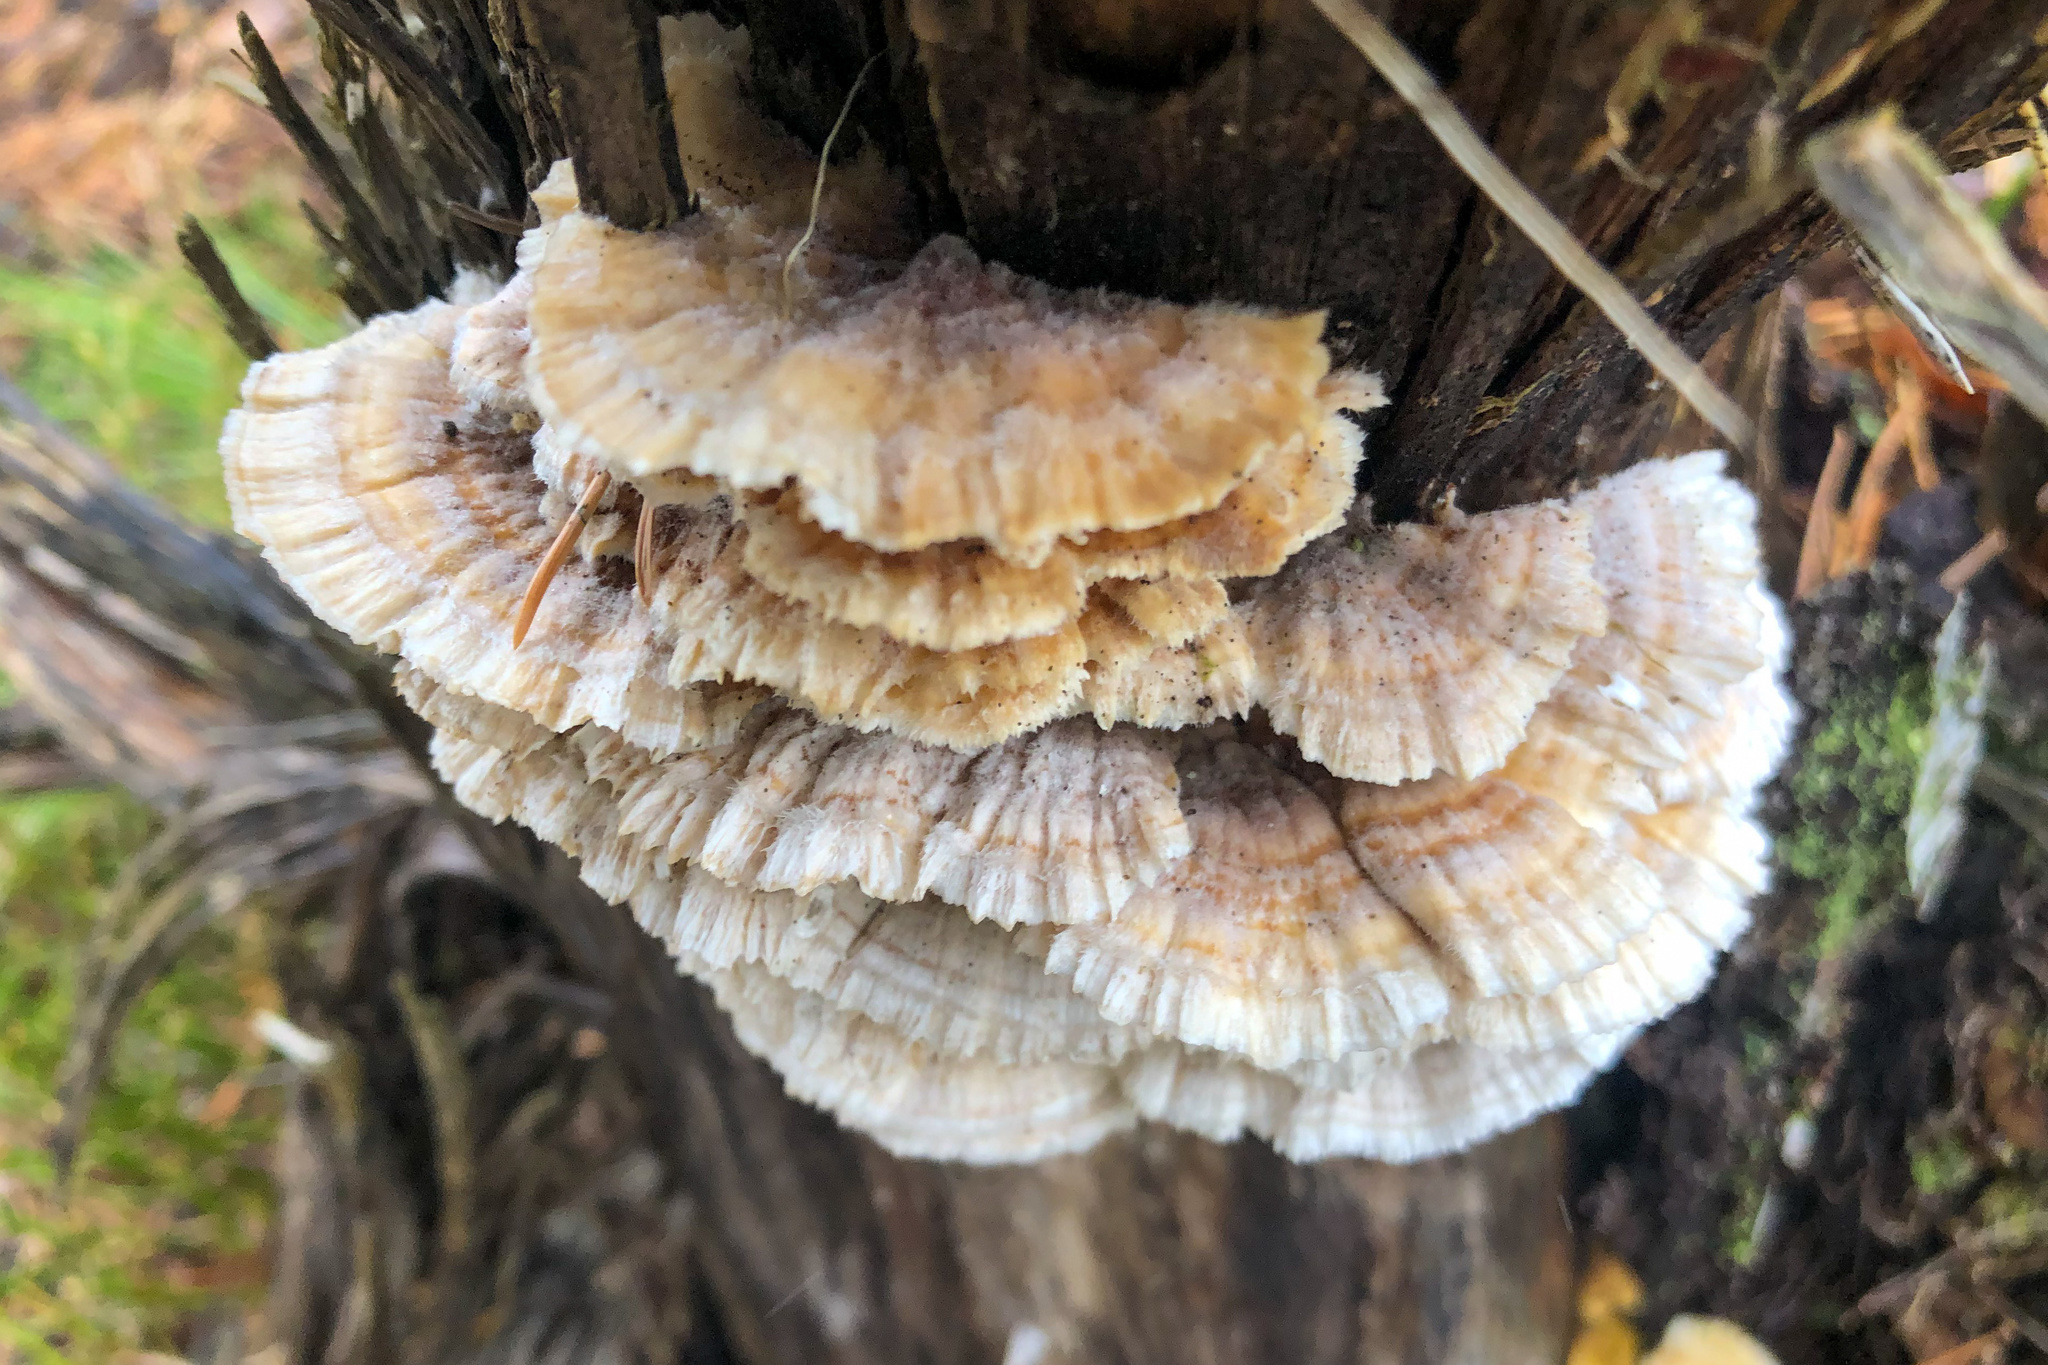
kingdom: Fungi
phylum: Basidiomycota
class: Agaricomycetes
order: Polyporales
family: Polyporaceae
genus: Trametes
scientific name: Trametes ochracea
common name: Ochre bracket
